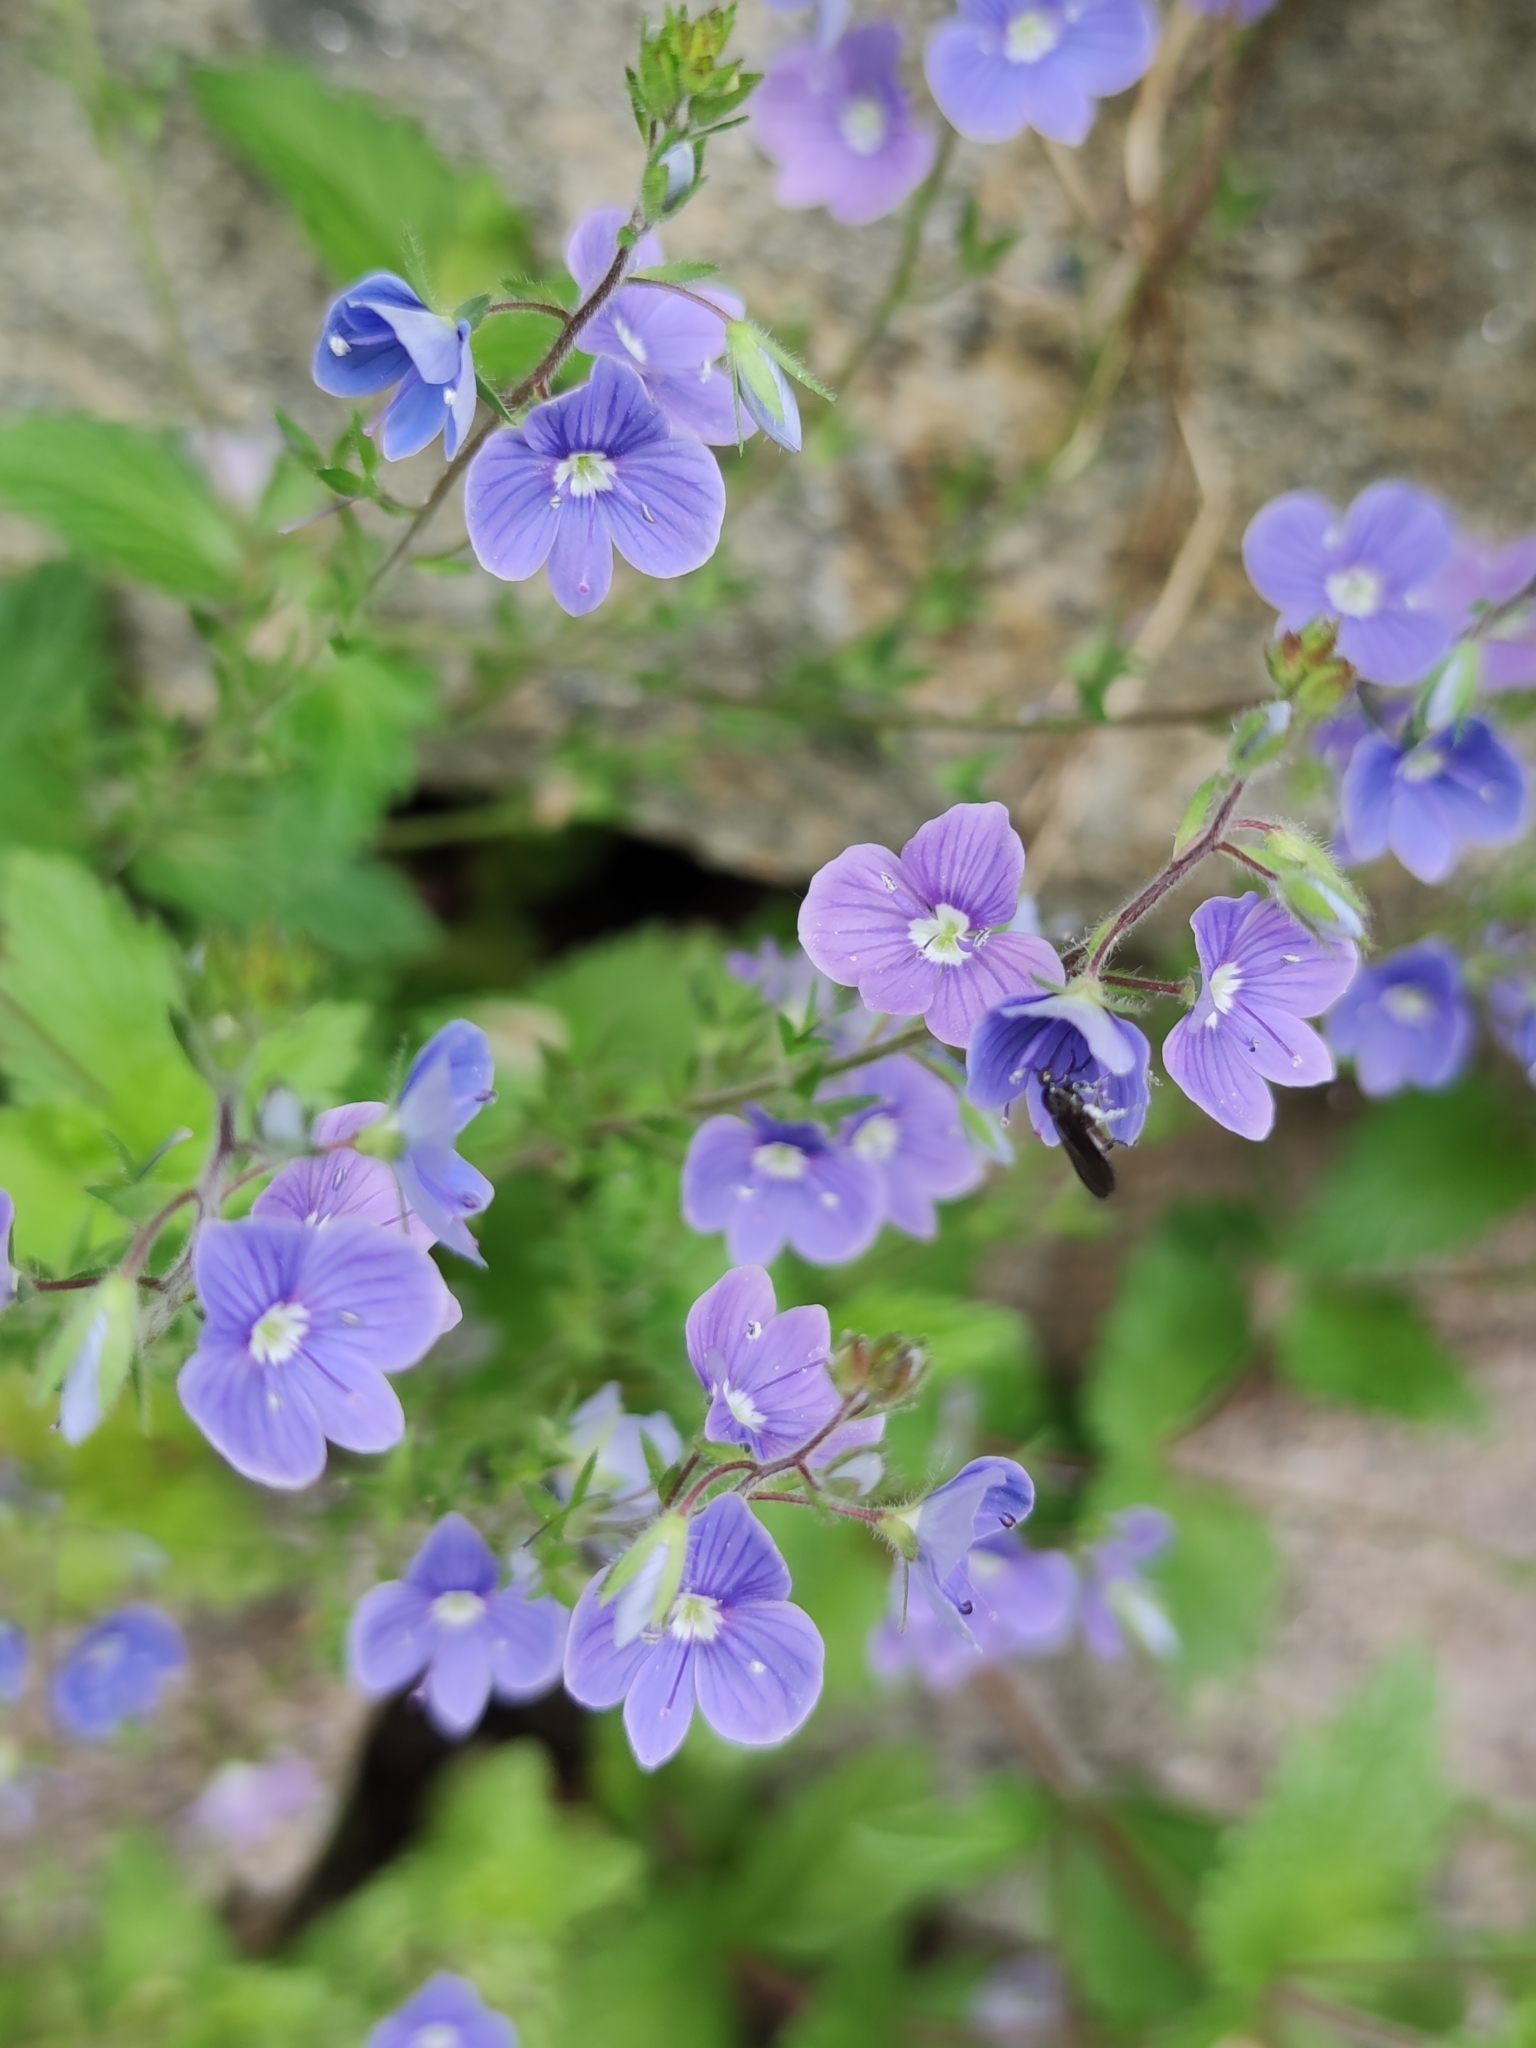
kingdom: Plantae
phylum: Tracheophyta
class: Magnoliopsida
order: Lamiales
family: Plantaginaceae
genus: Veronica
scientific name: Veronica chamaedrys
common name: Germander speedwell
